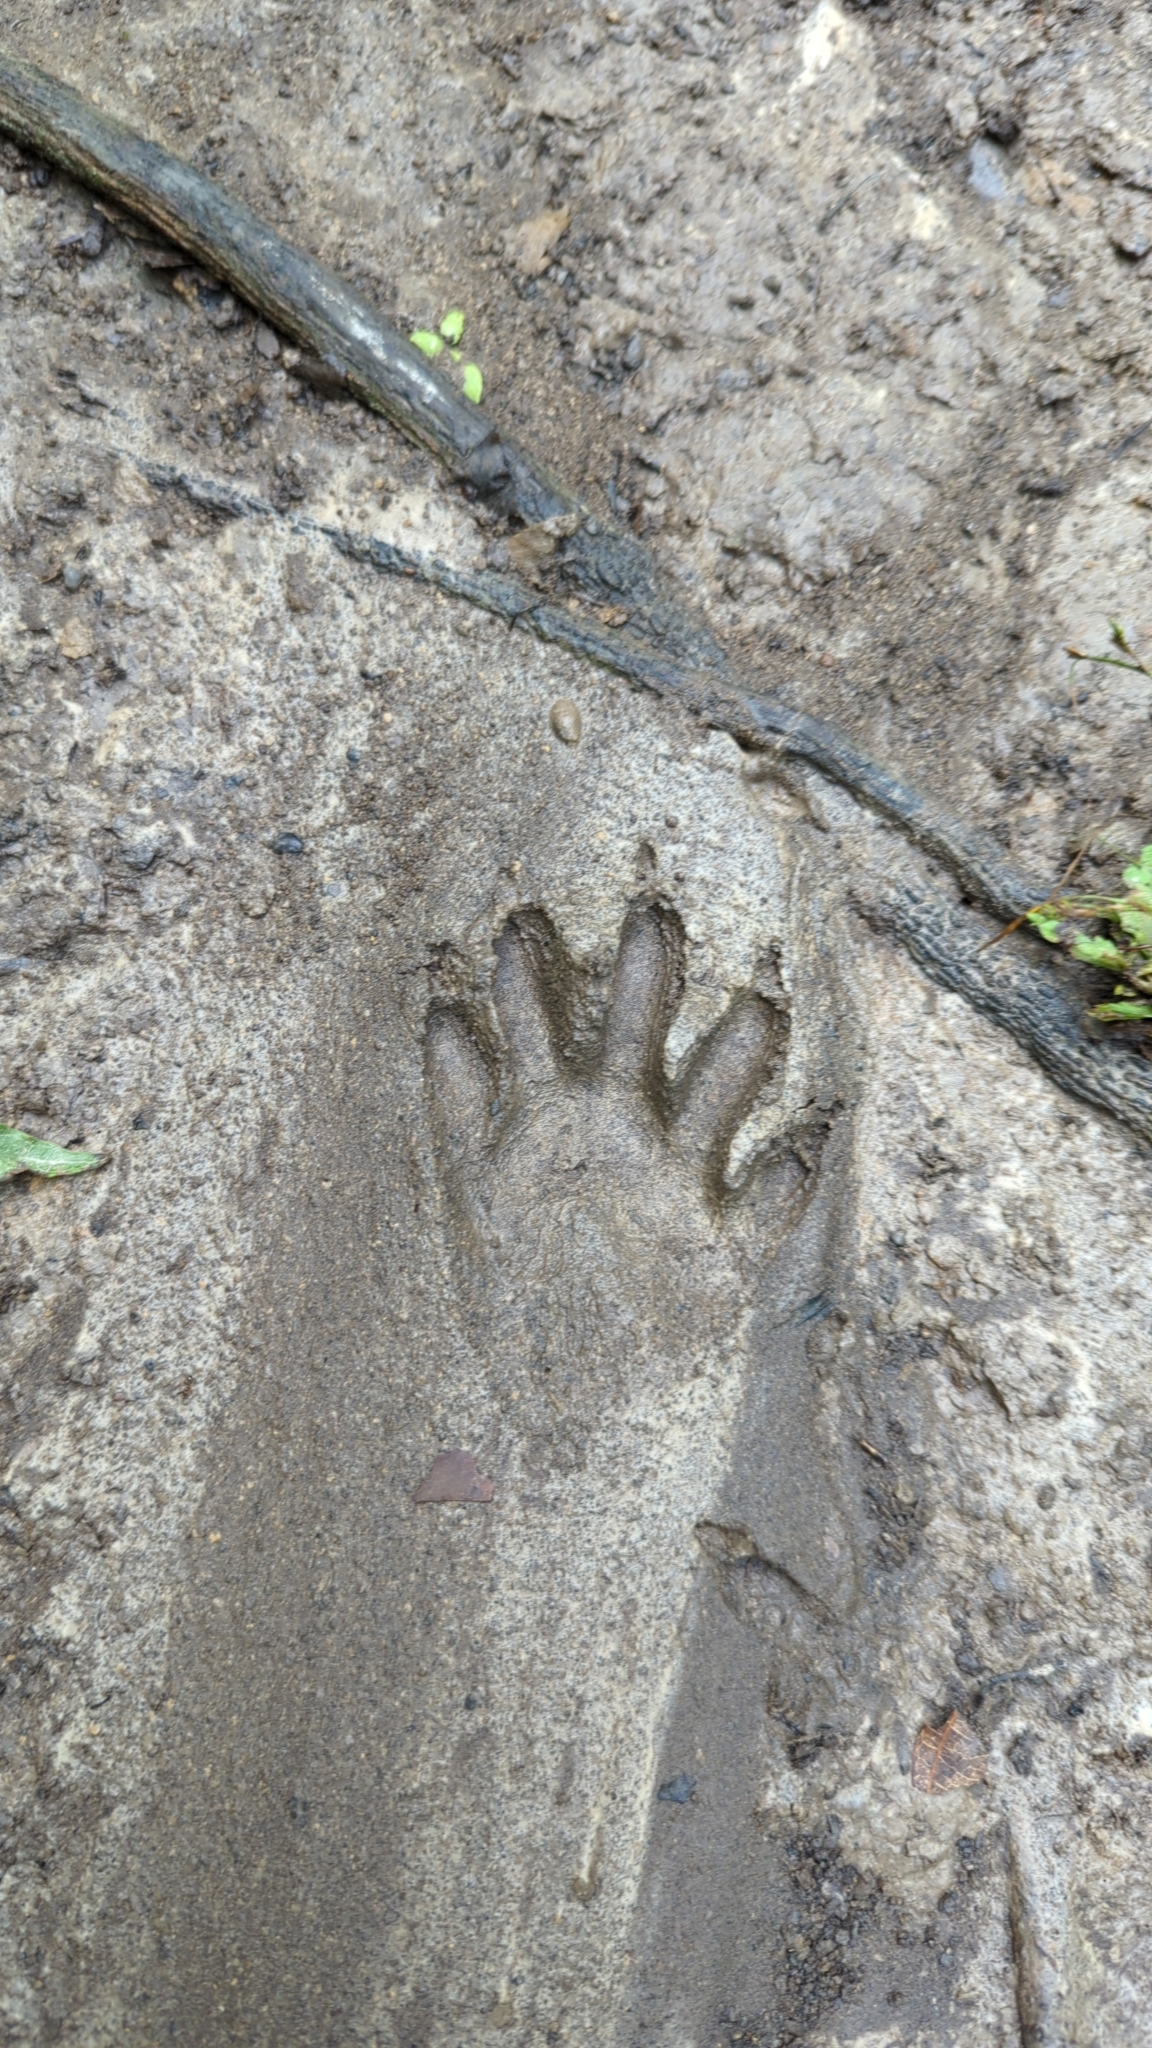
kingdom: Animalia
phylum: Chordata
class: Mammalia
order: Carnivora
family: Procyonidae
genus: Procyon
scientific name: Procyon lotor
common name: Raccoon
